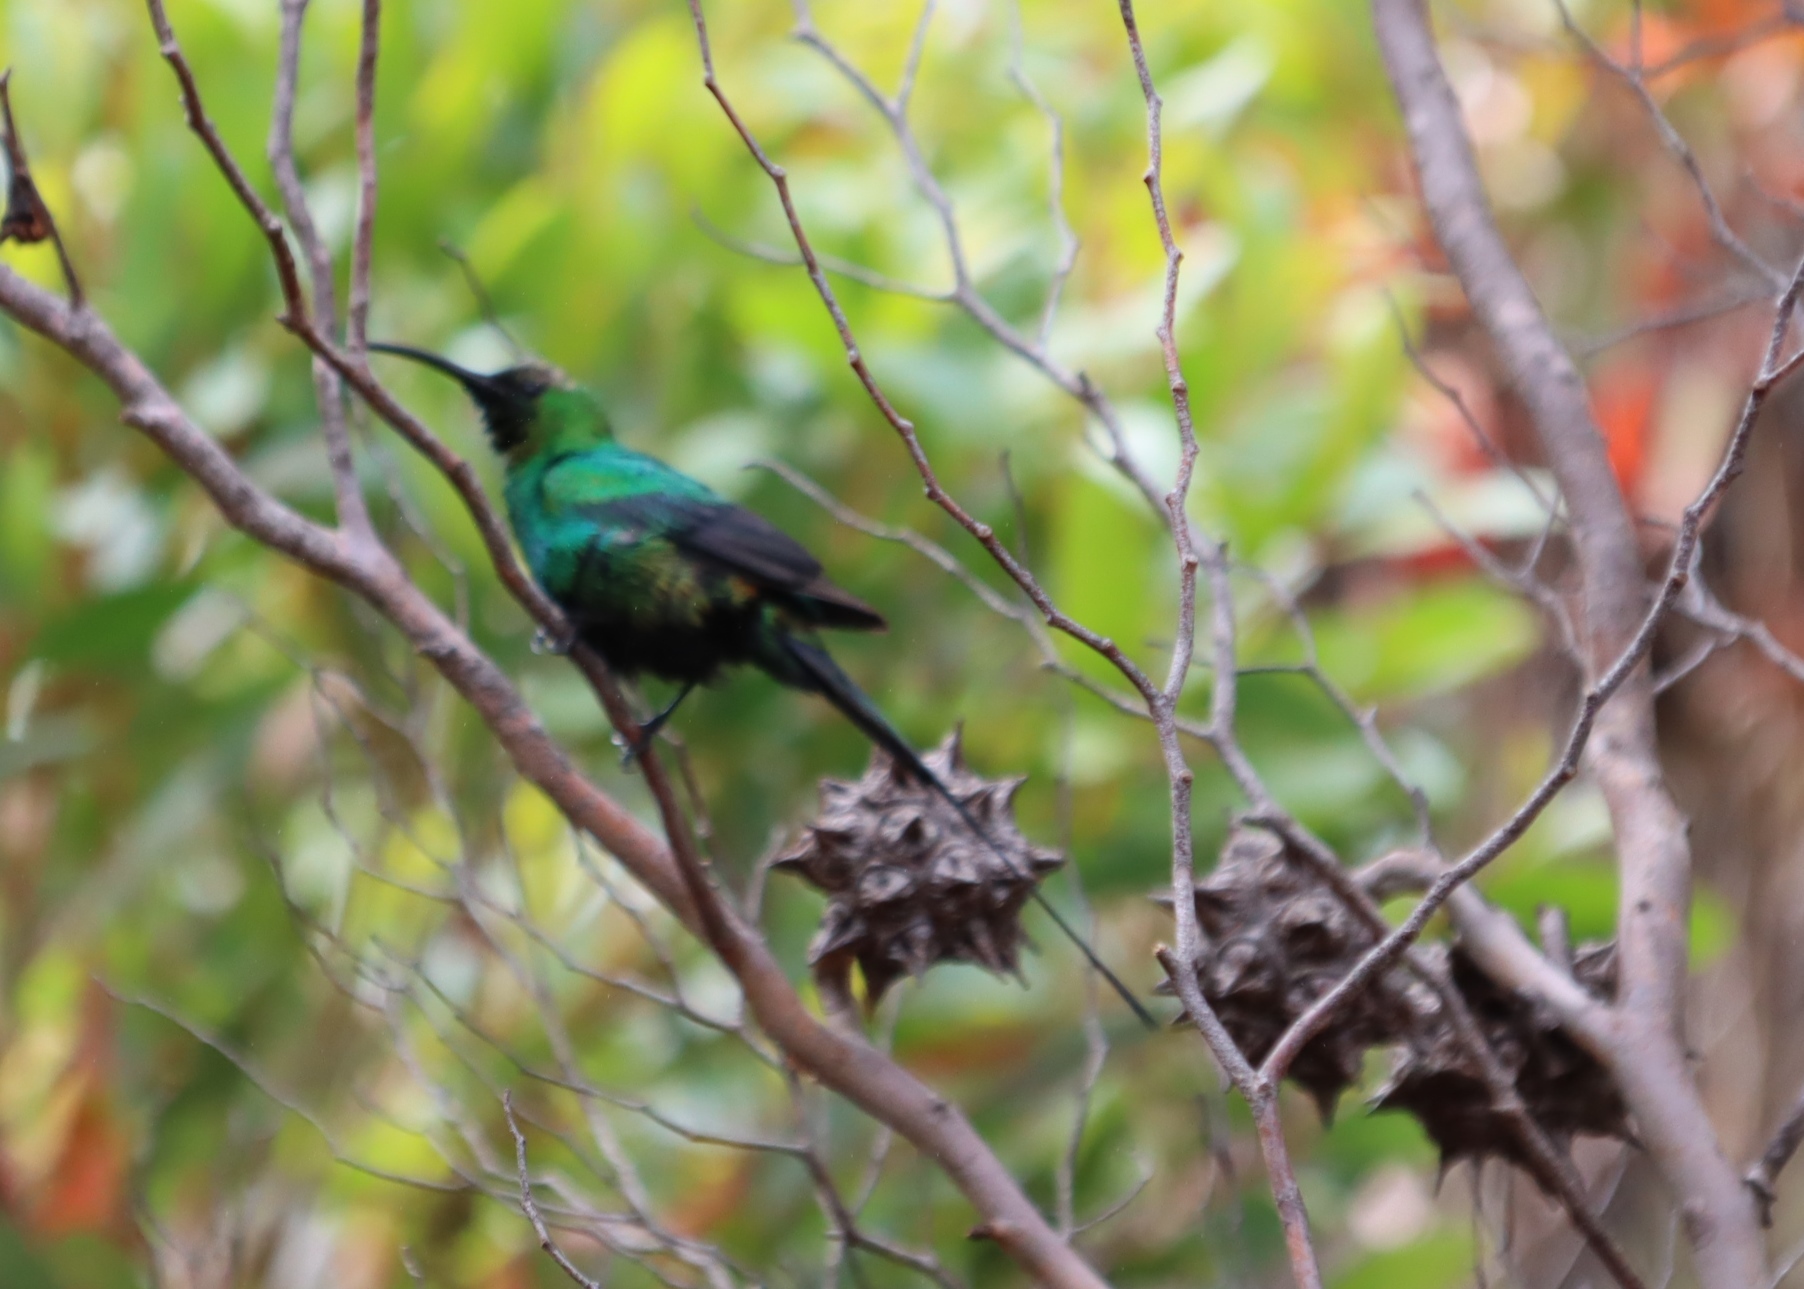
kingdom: Animalia
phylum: Chordata
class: Aves
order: Passeriformes
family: Nectariniidae
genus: Nectarinia
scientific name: Nectarinia famosa
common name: Malachite sunbird
